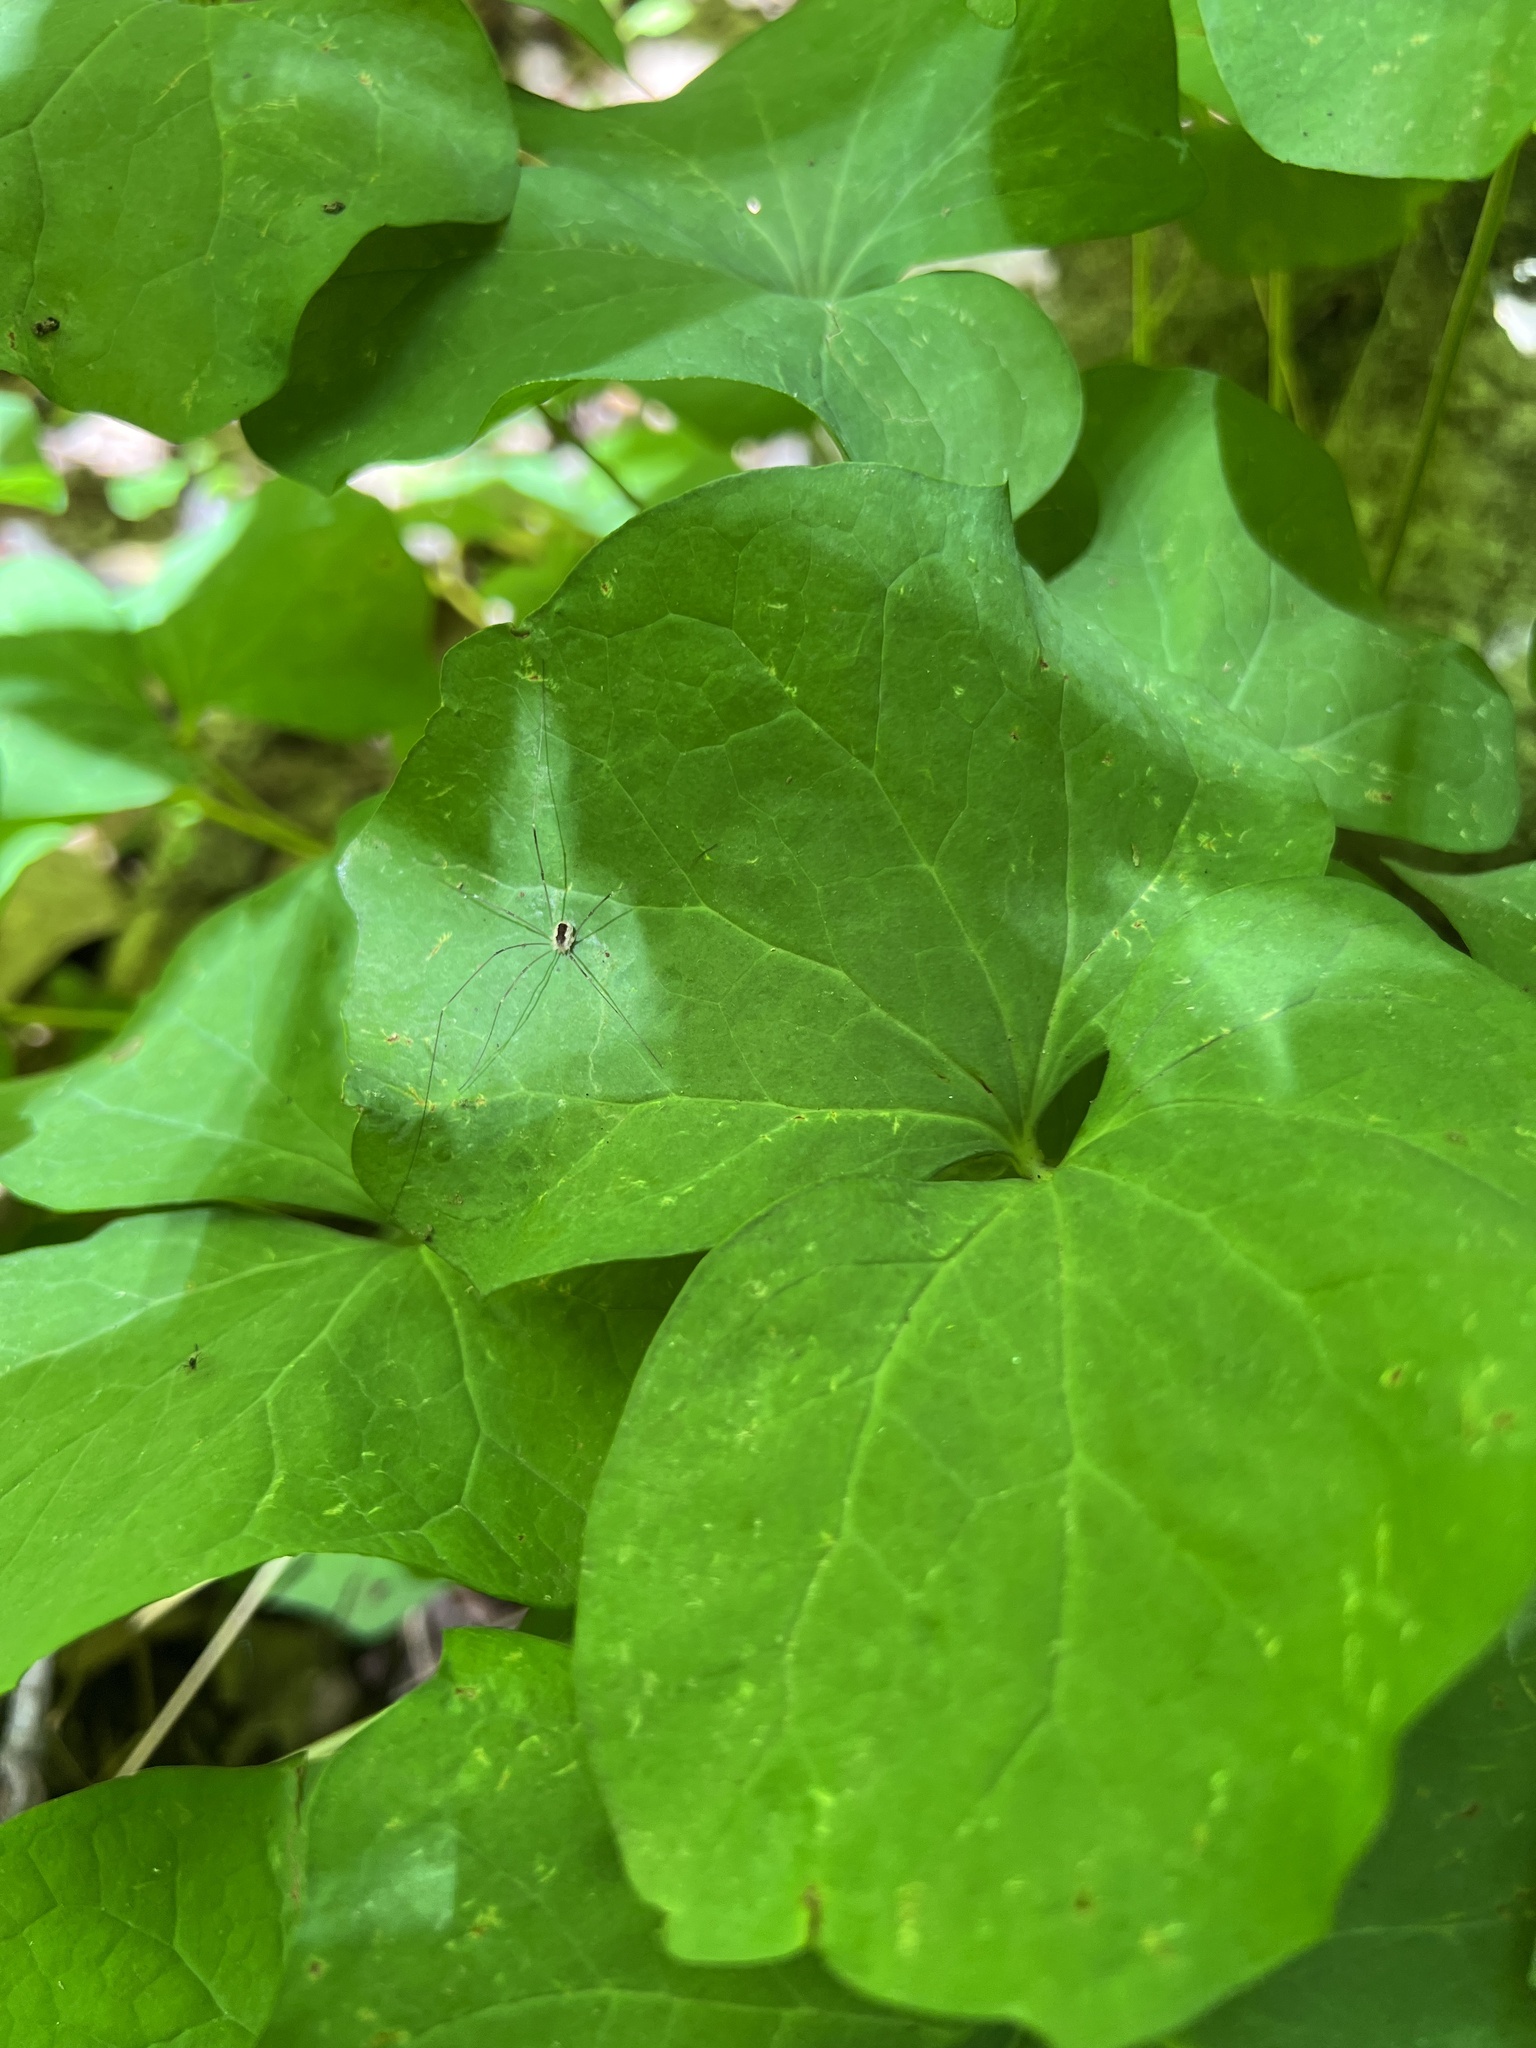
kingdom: Plantae
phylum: Tracheophyta
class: Magnoliopsida
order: Ranunculales
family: Berberidaceae
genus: Jeffersonia
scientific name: Jeffersonia diphylla
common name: Rheumatism-root
